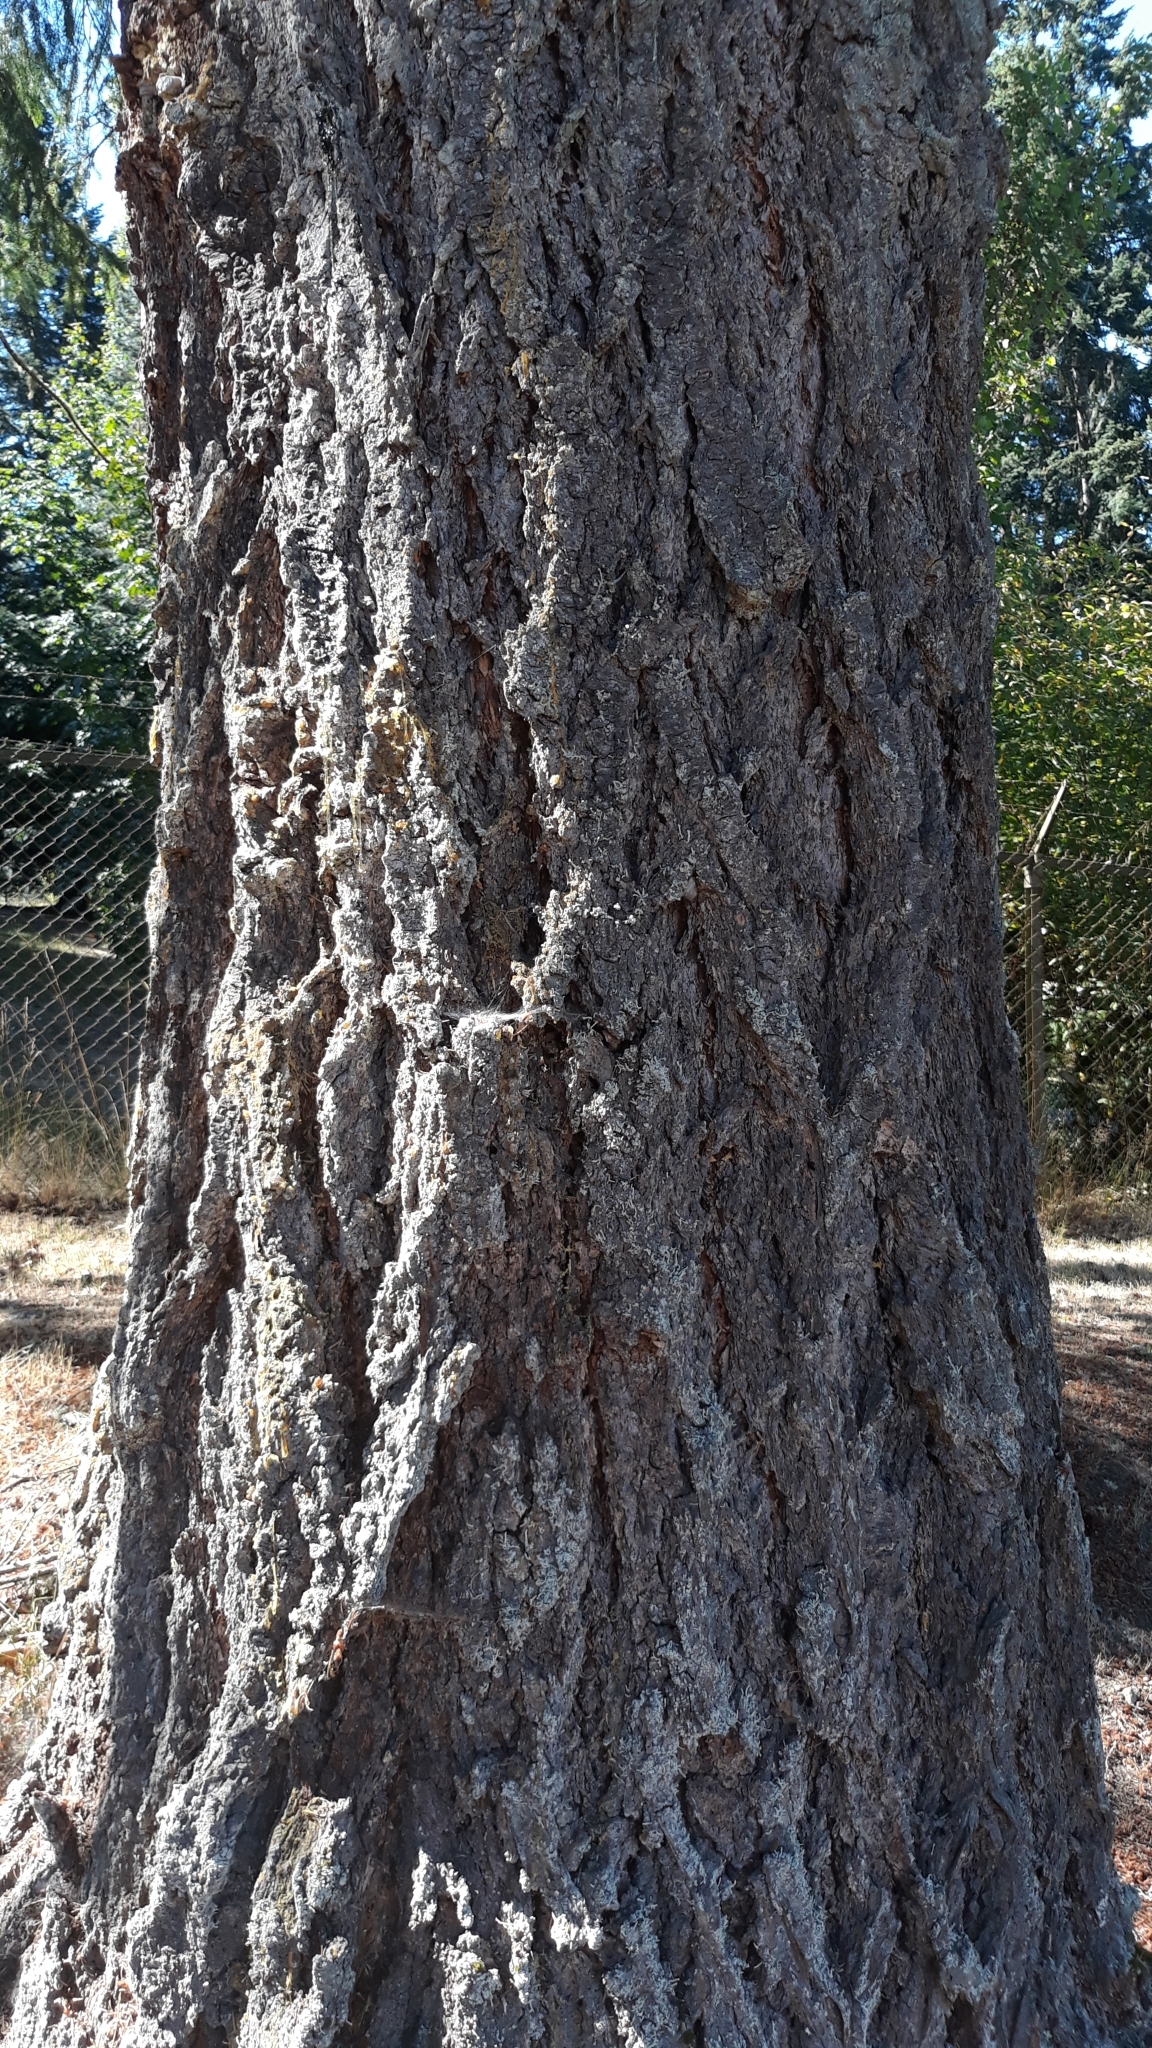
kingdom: Plantae
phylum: Tracheophyta
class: Pinopsida
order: Pinales
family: Pinaceae
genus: Pseudotsuga
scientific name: Pseudotsuga menziesii
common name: Douglas fir
